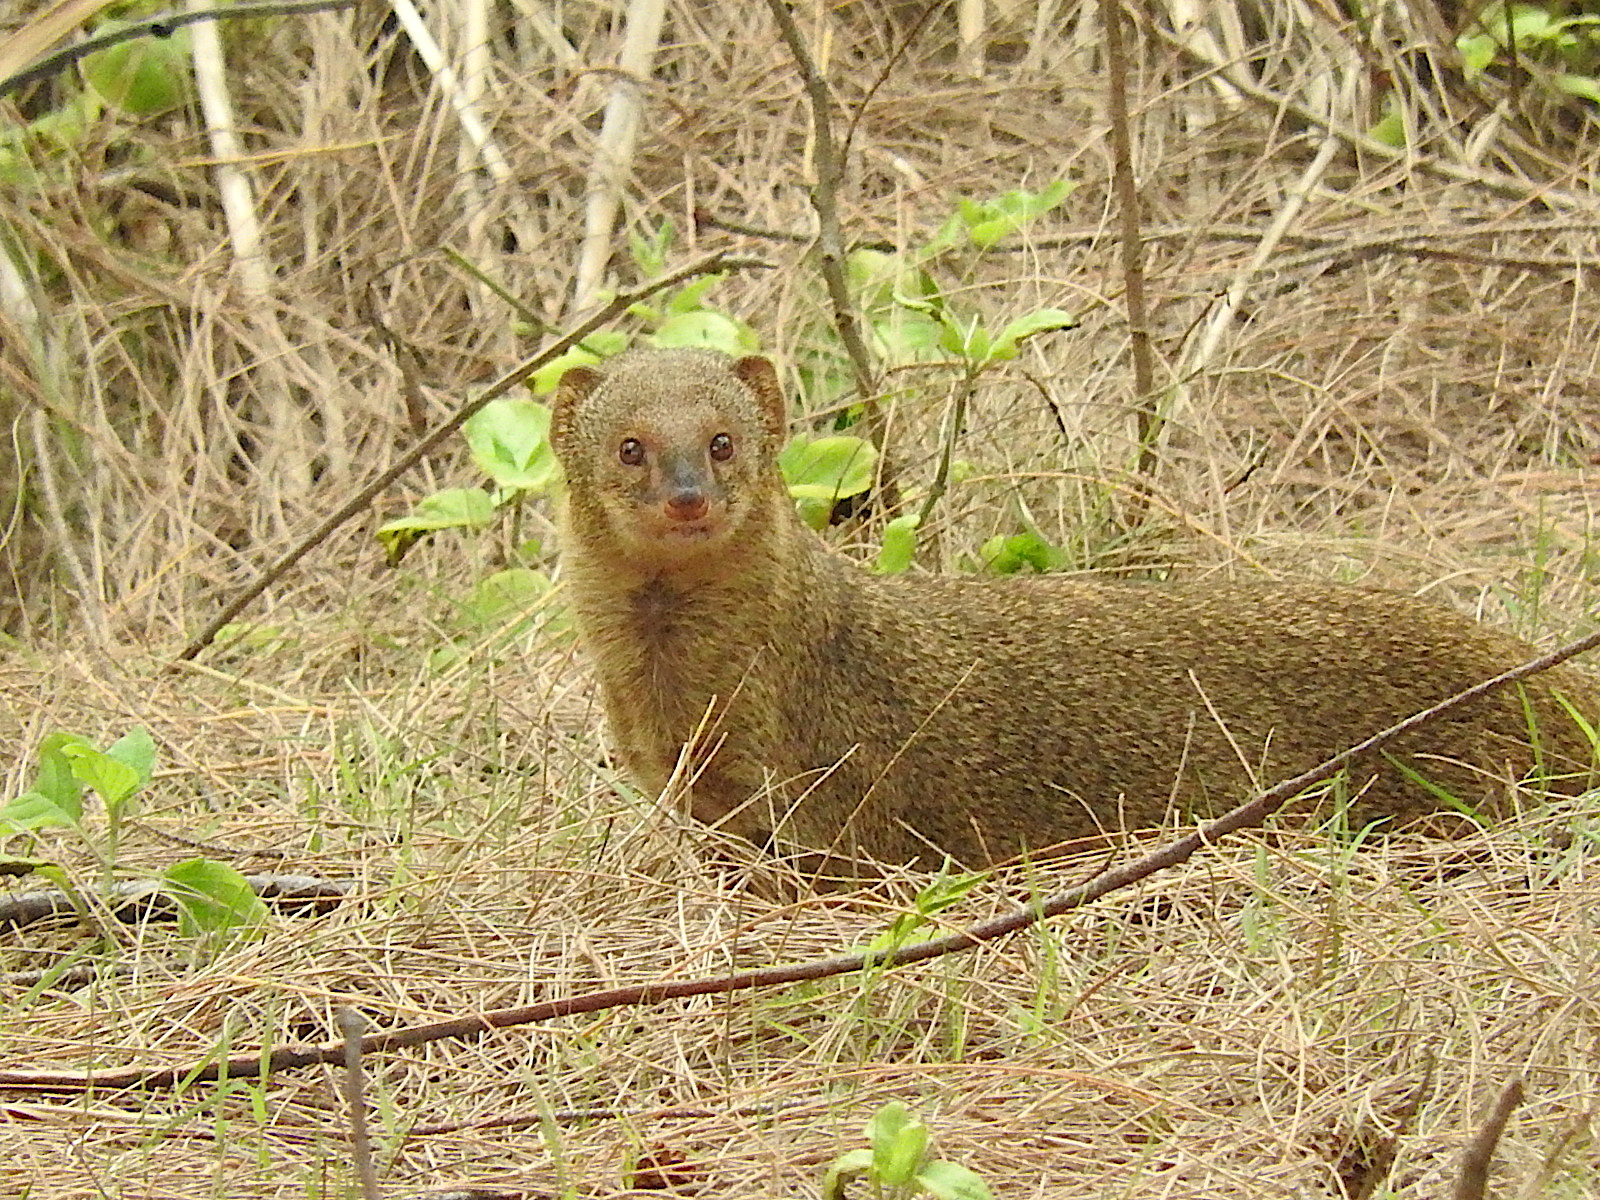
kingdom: Animalia
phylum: Chordata
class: Mammalia
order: Carnivora
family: Herpestidae
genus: Herpestes
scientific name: Herpestes javanicus
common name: Small asian mongoose
